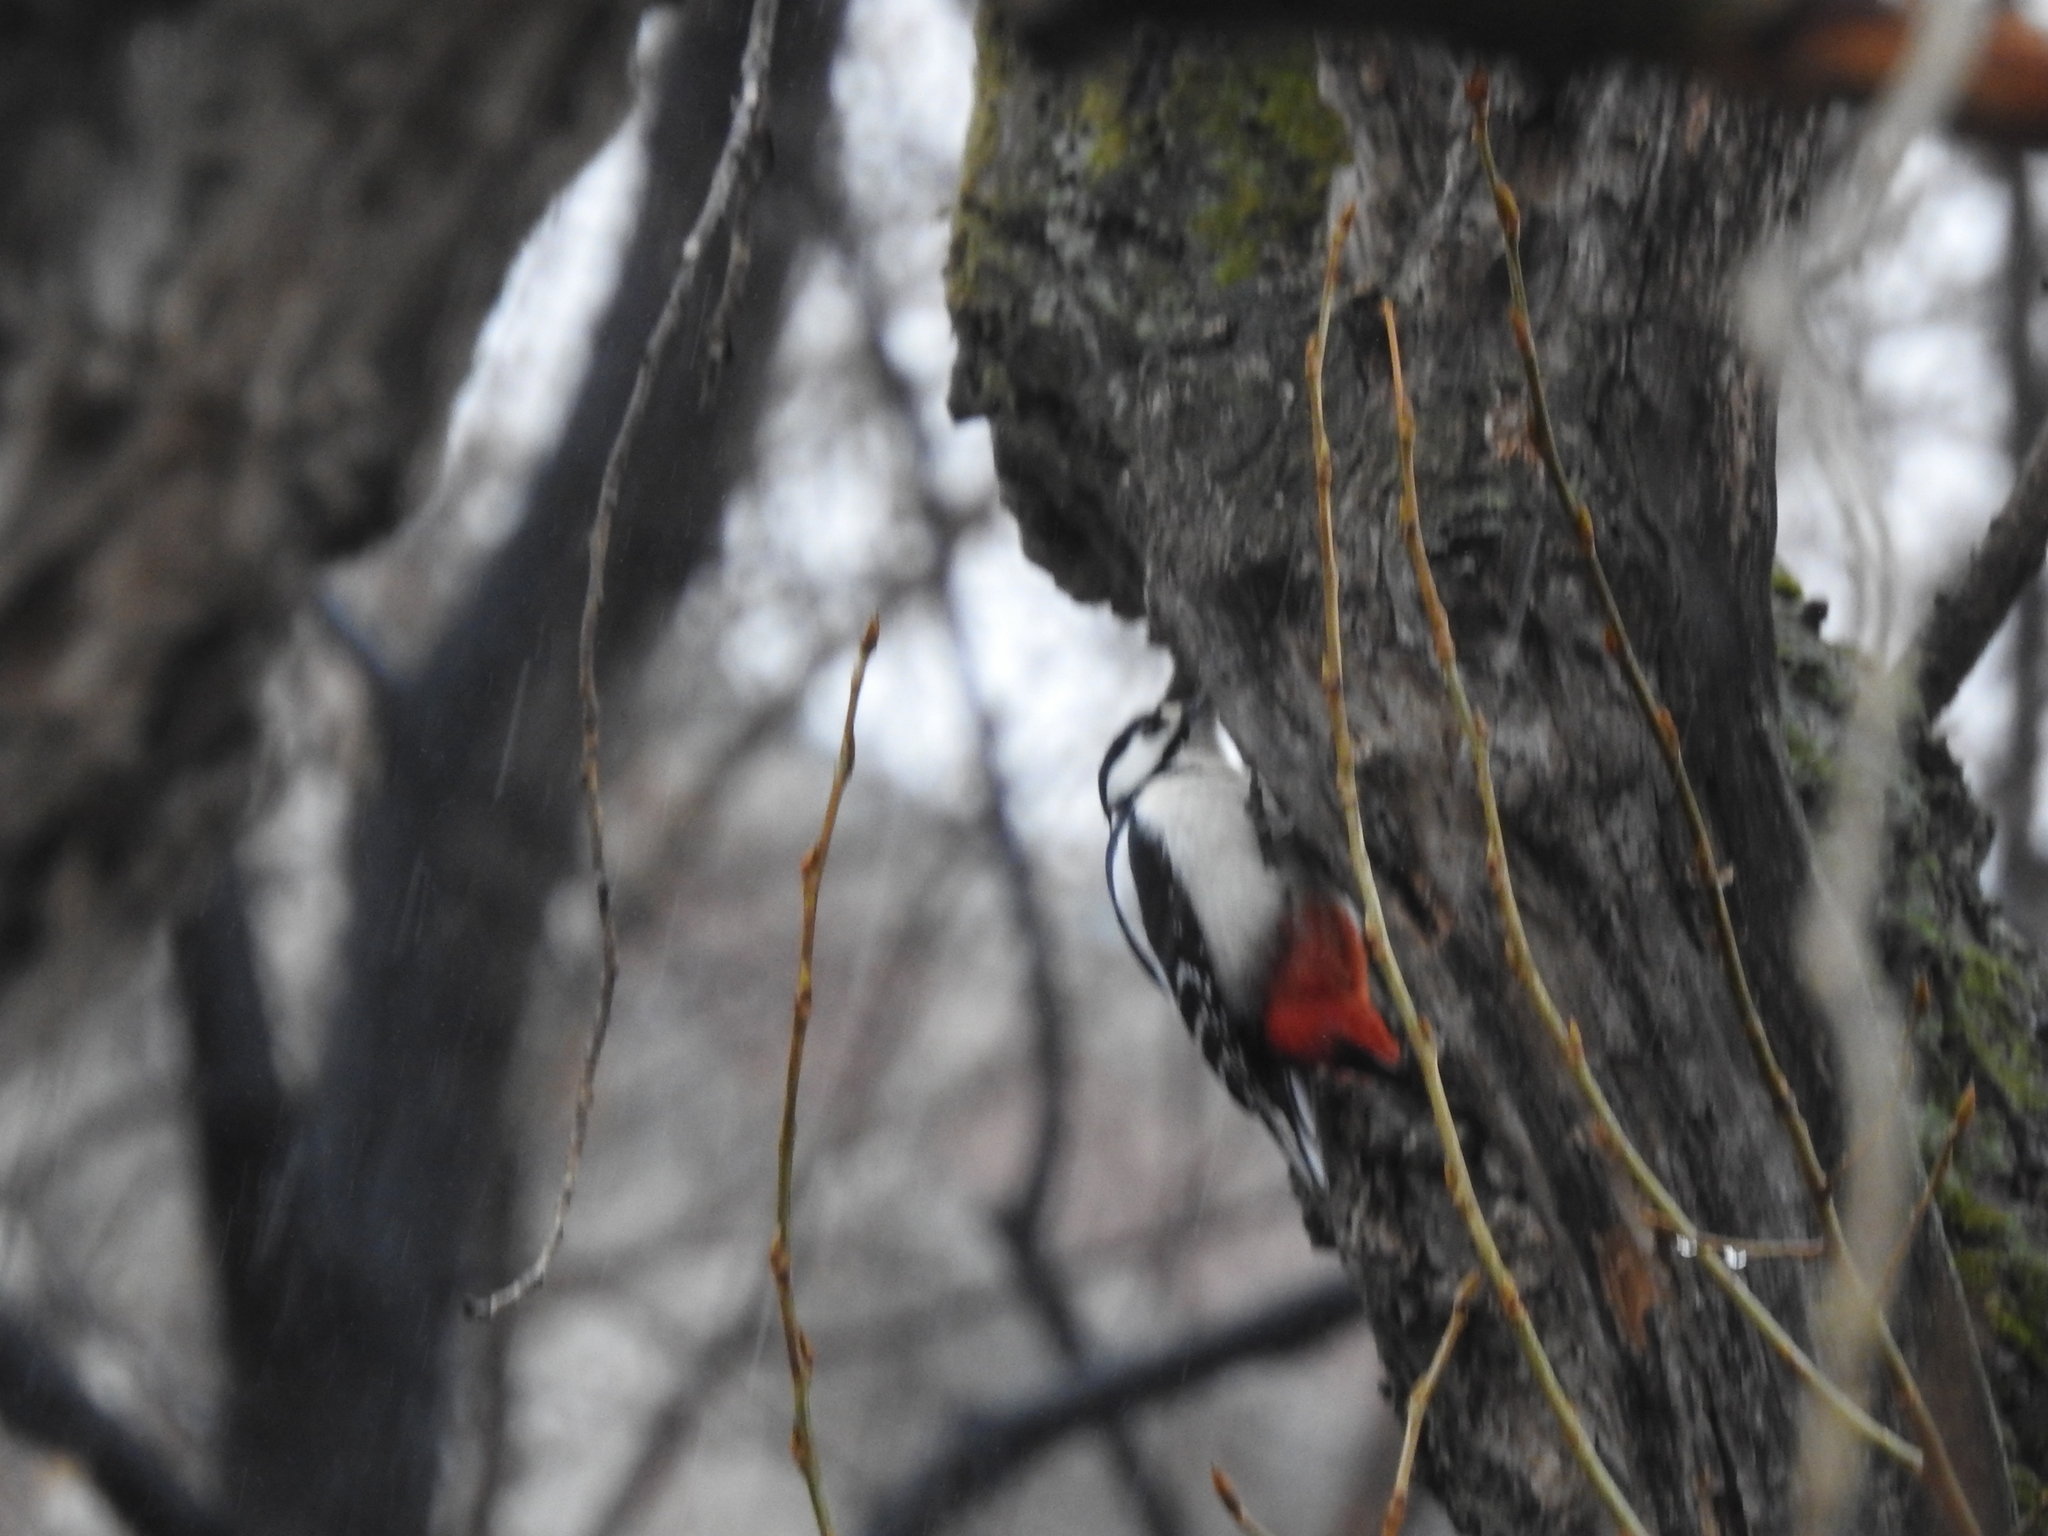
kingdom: Animalia
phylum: Chordata
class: Aves
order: Piciformes
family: Picidae
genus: Dendrocopos
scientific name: Dendrocopos major
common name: Great spotted woodpecker
